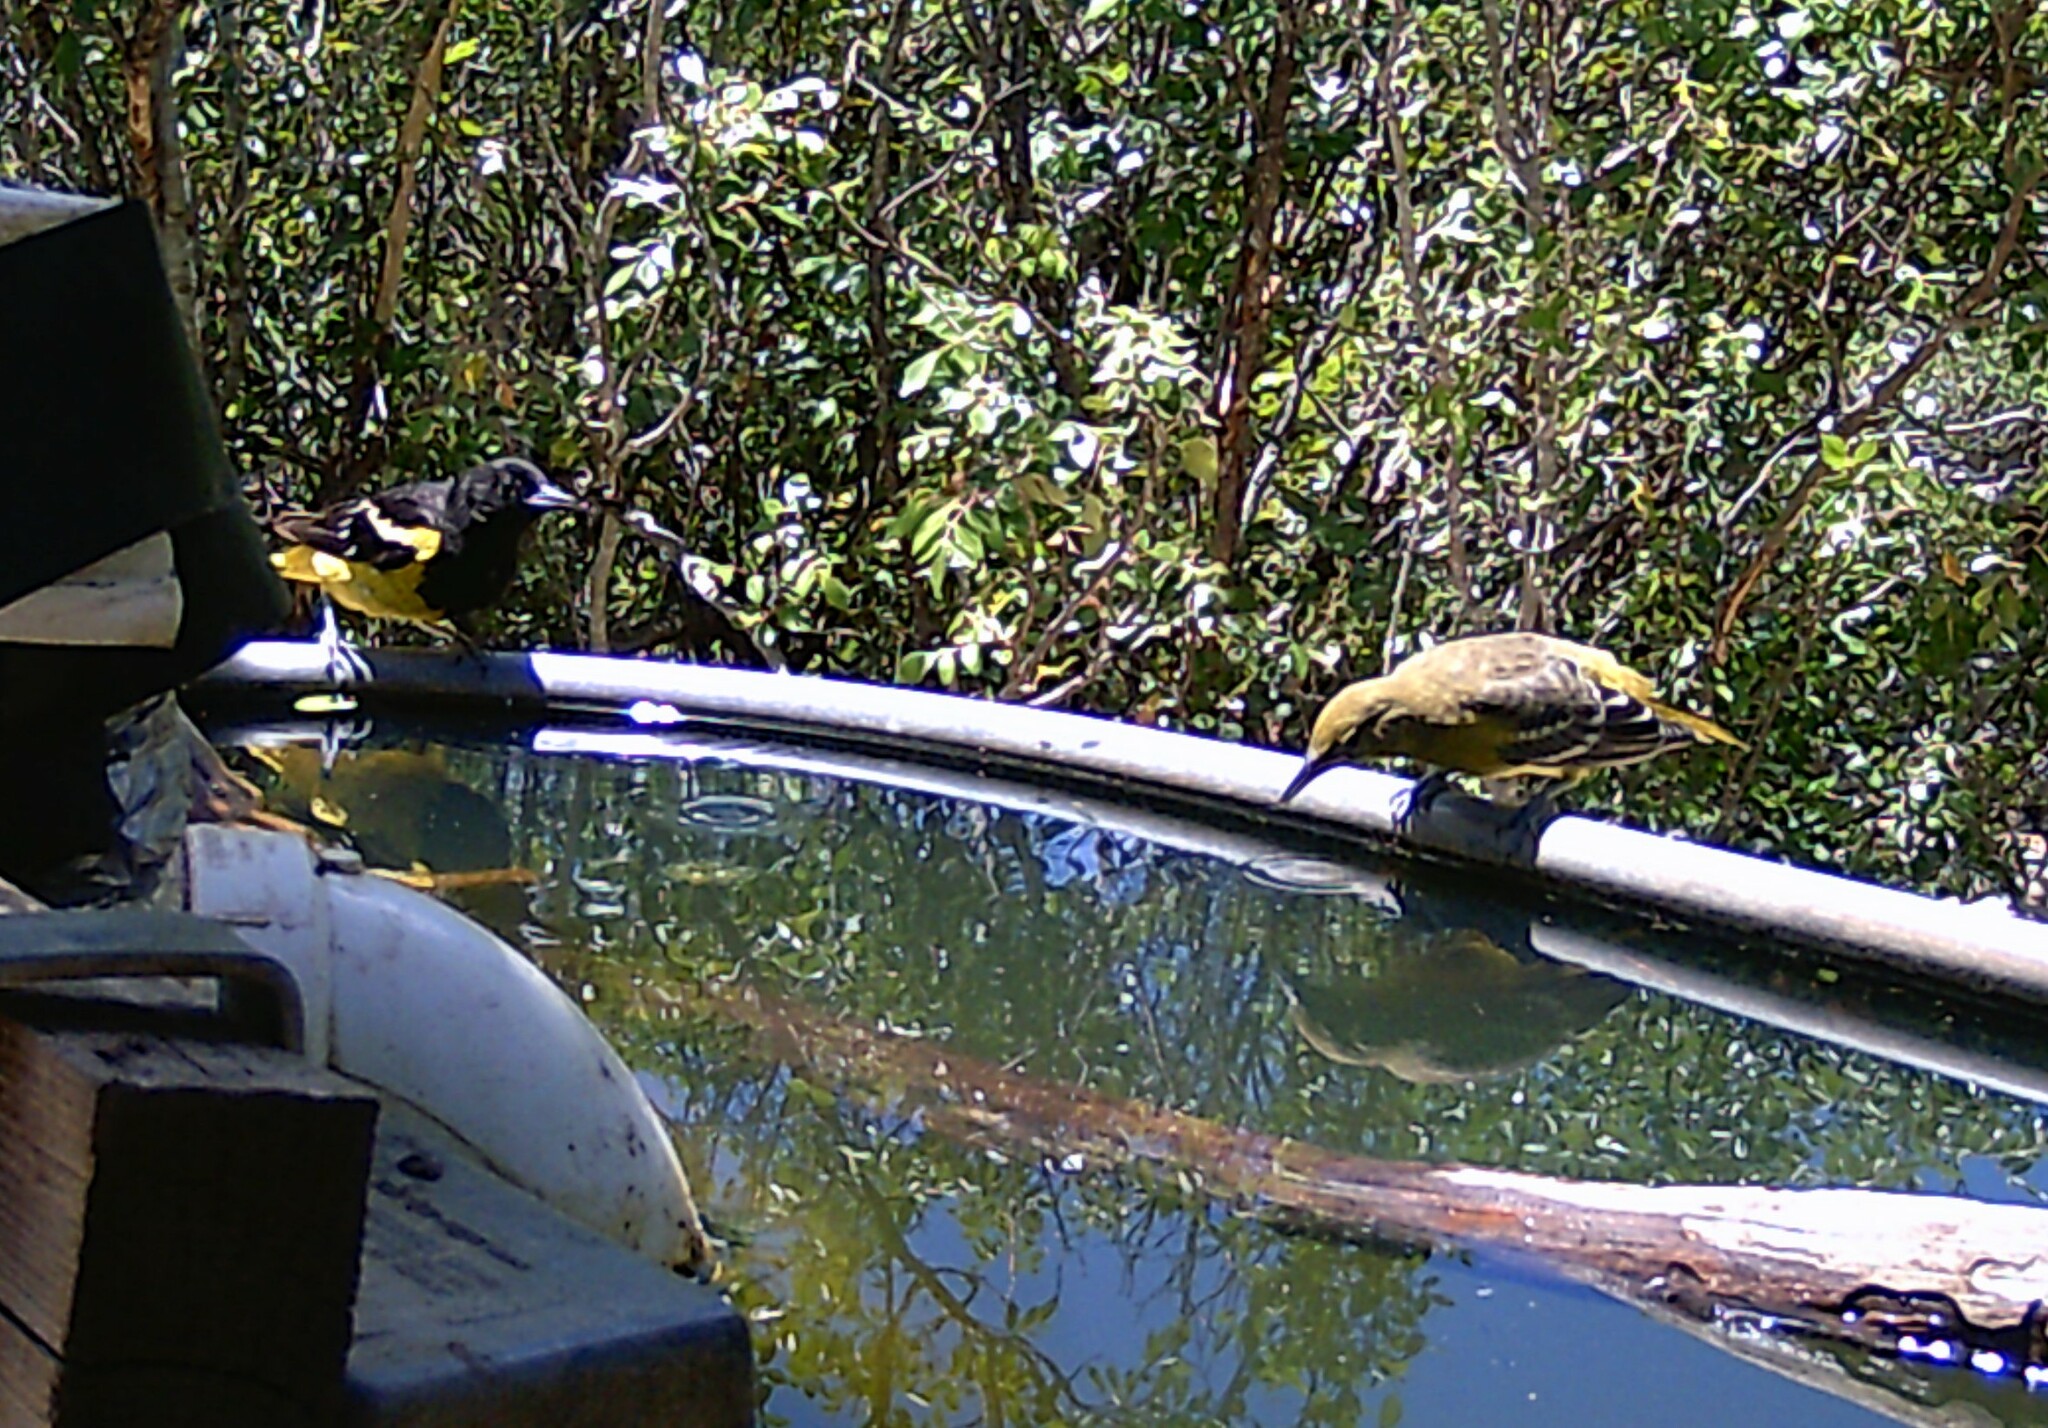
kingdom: Animalia
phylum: Chordata
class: Aves
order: Passeriformes
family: Icteridae
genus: Icterus
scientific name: Icterus parisorum
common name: Scott's oriole
